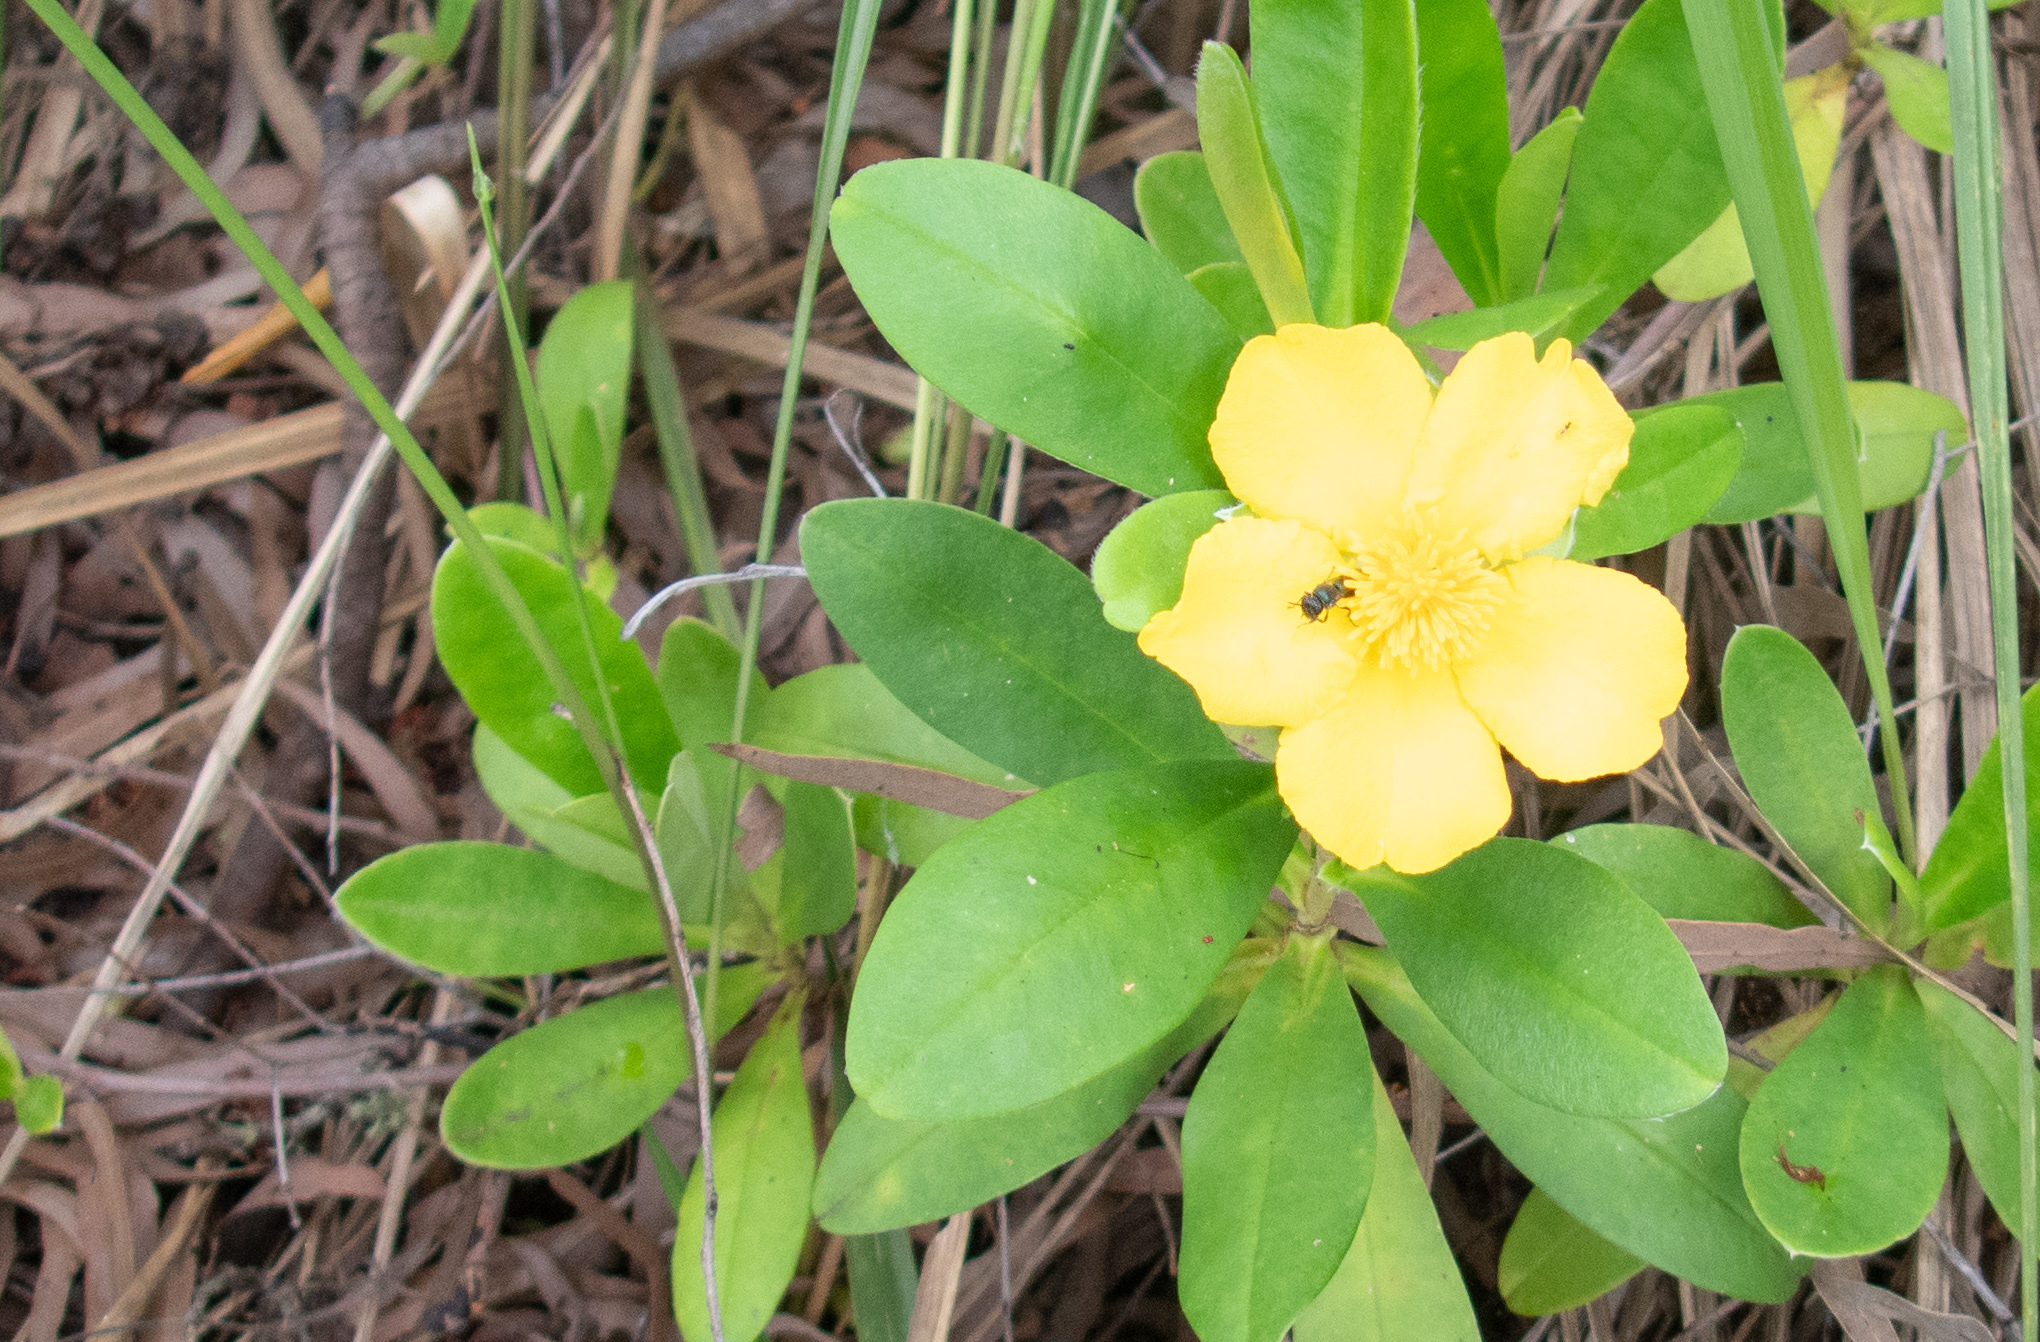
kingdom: Plantae
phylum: Tracheophyta
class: Magnoliopsida
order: Dilleniales
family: Dilleniaceae
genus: Hibbertia
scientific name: Hibbertia scandens
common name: Climbing guinea-flower
